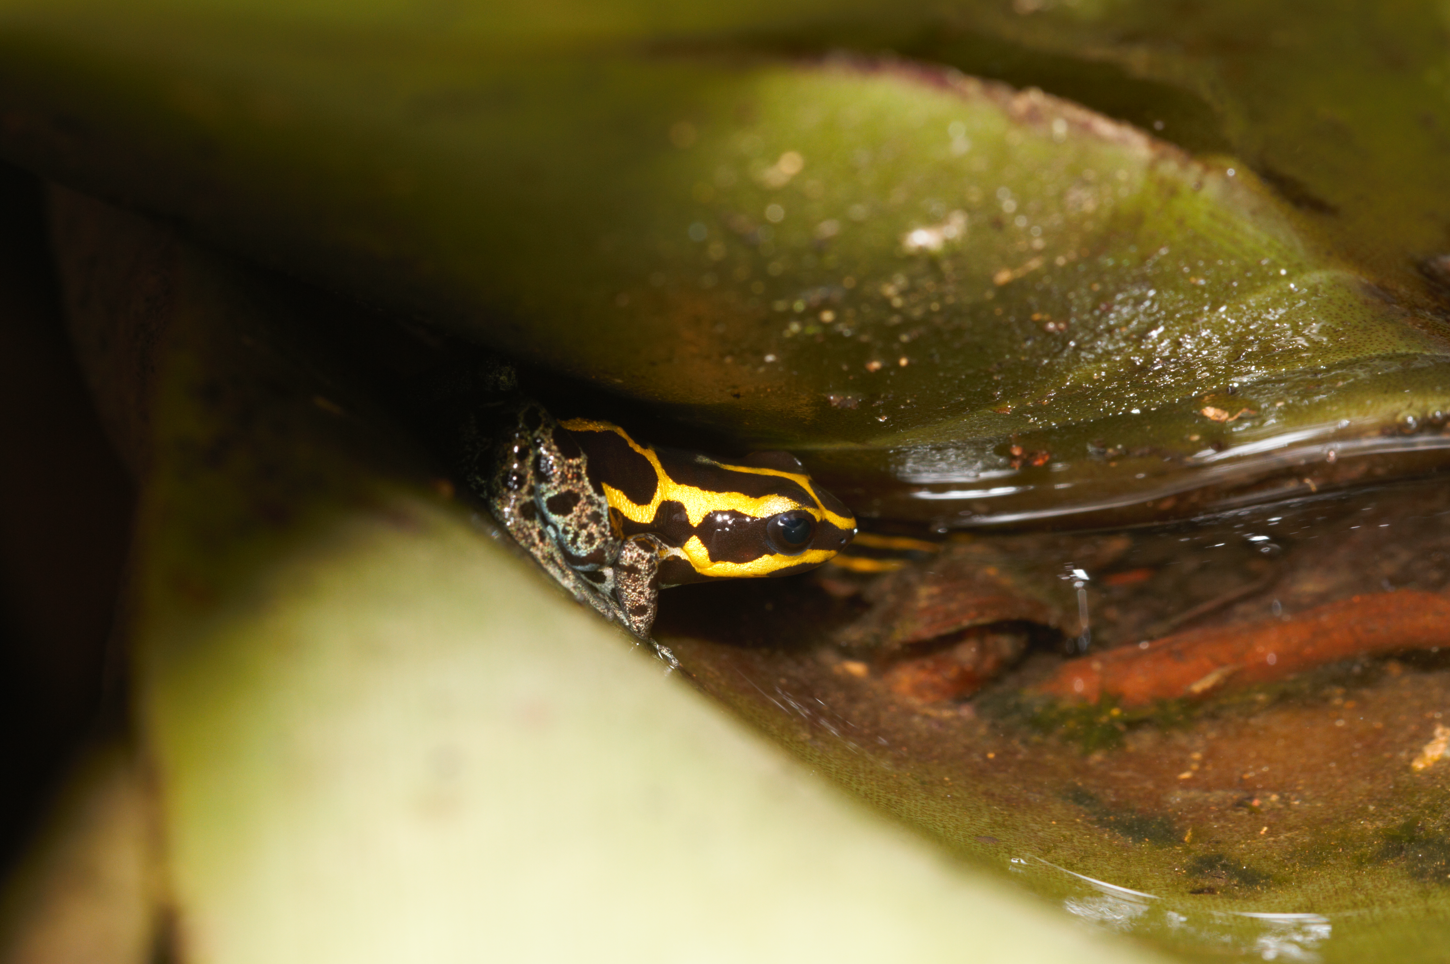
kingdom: Animalia
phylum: Chordata
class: Amphibia
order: Anura
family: Dendrobatidae
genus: Ranitomeya
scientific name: Ranitomeya variabilis
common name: Variable poison frog
